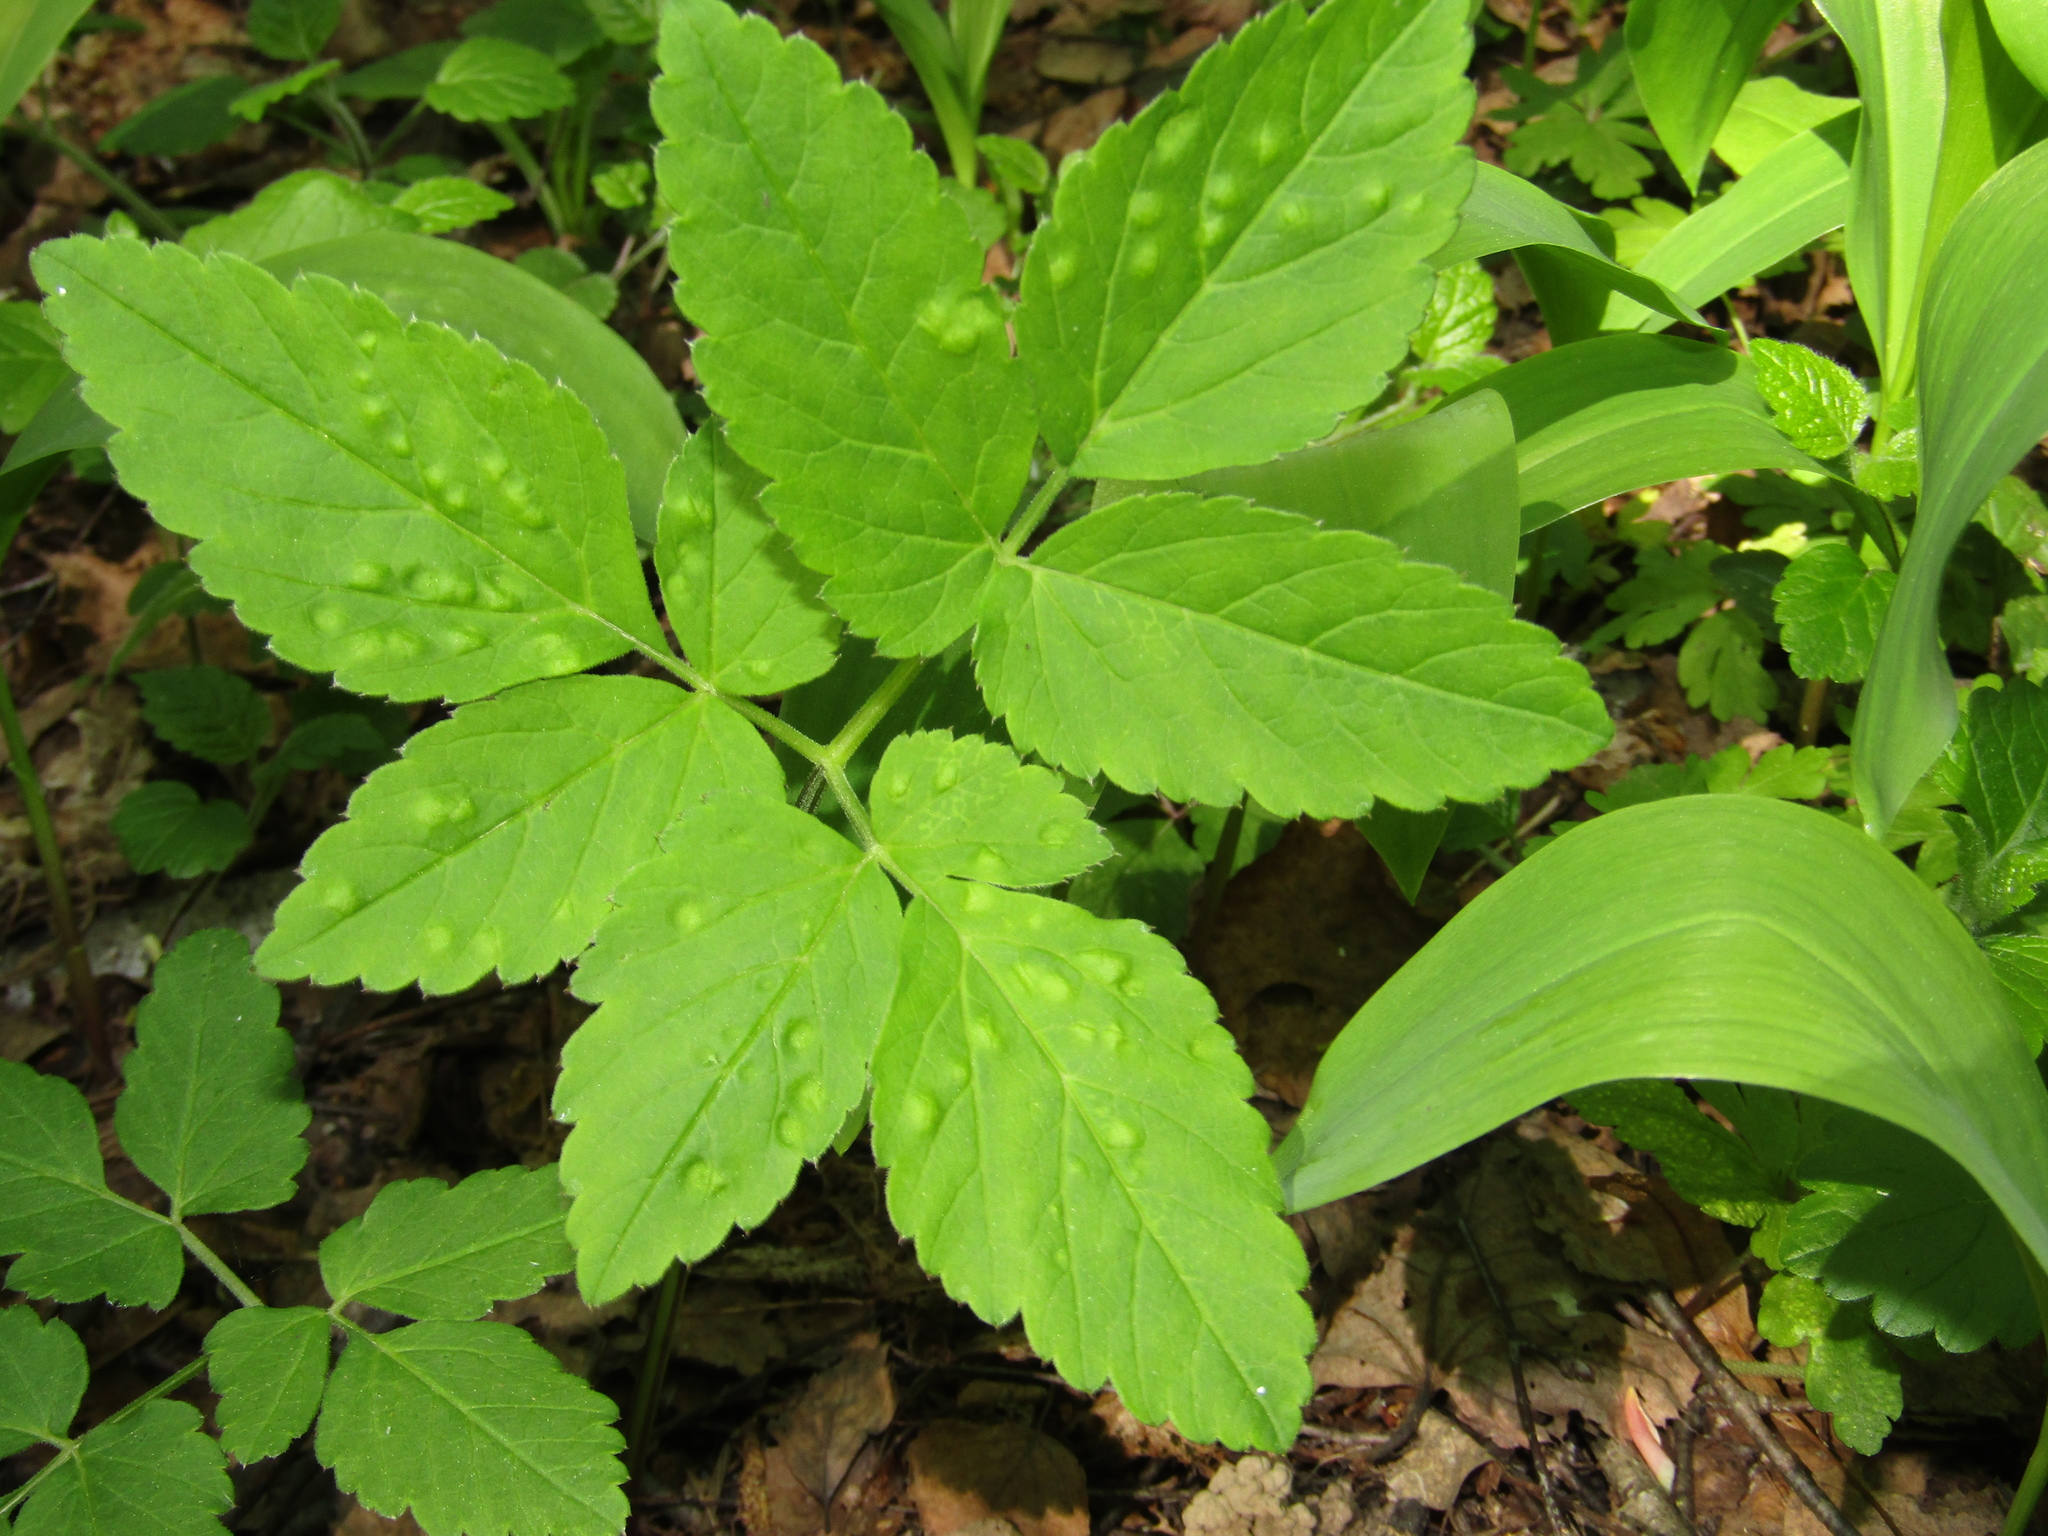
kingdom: Plantae
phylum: Tracheophyta
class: Magnoliopsida
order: Apiales
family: Apiaceae
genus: Aegopodium
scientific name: Aegopodium podagraria
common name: Ground-elder
